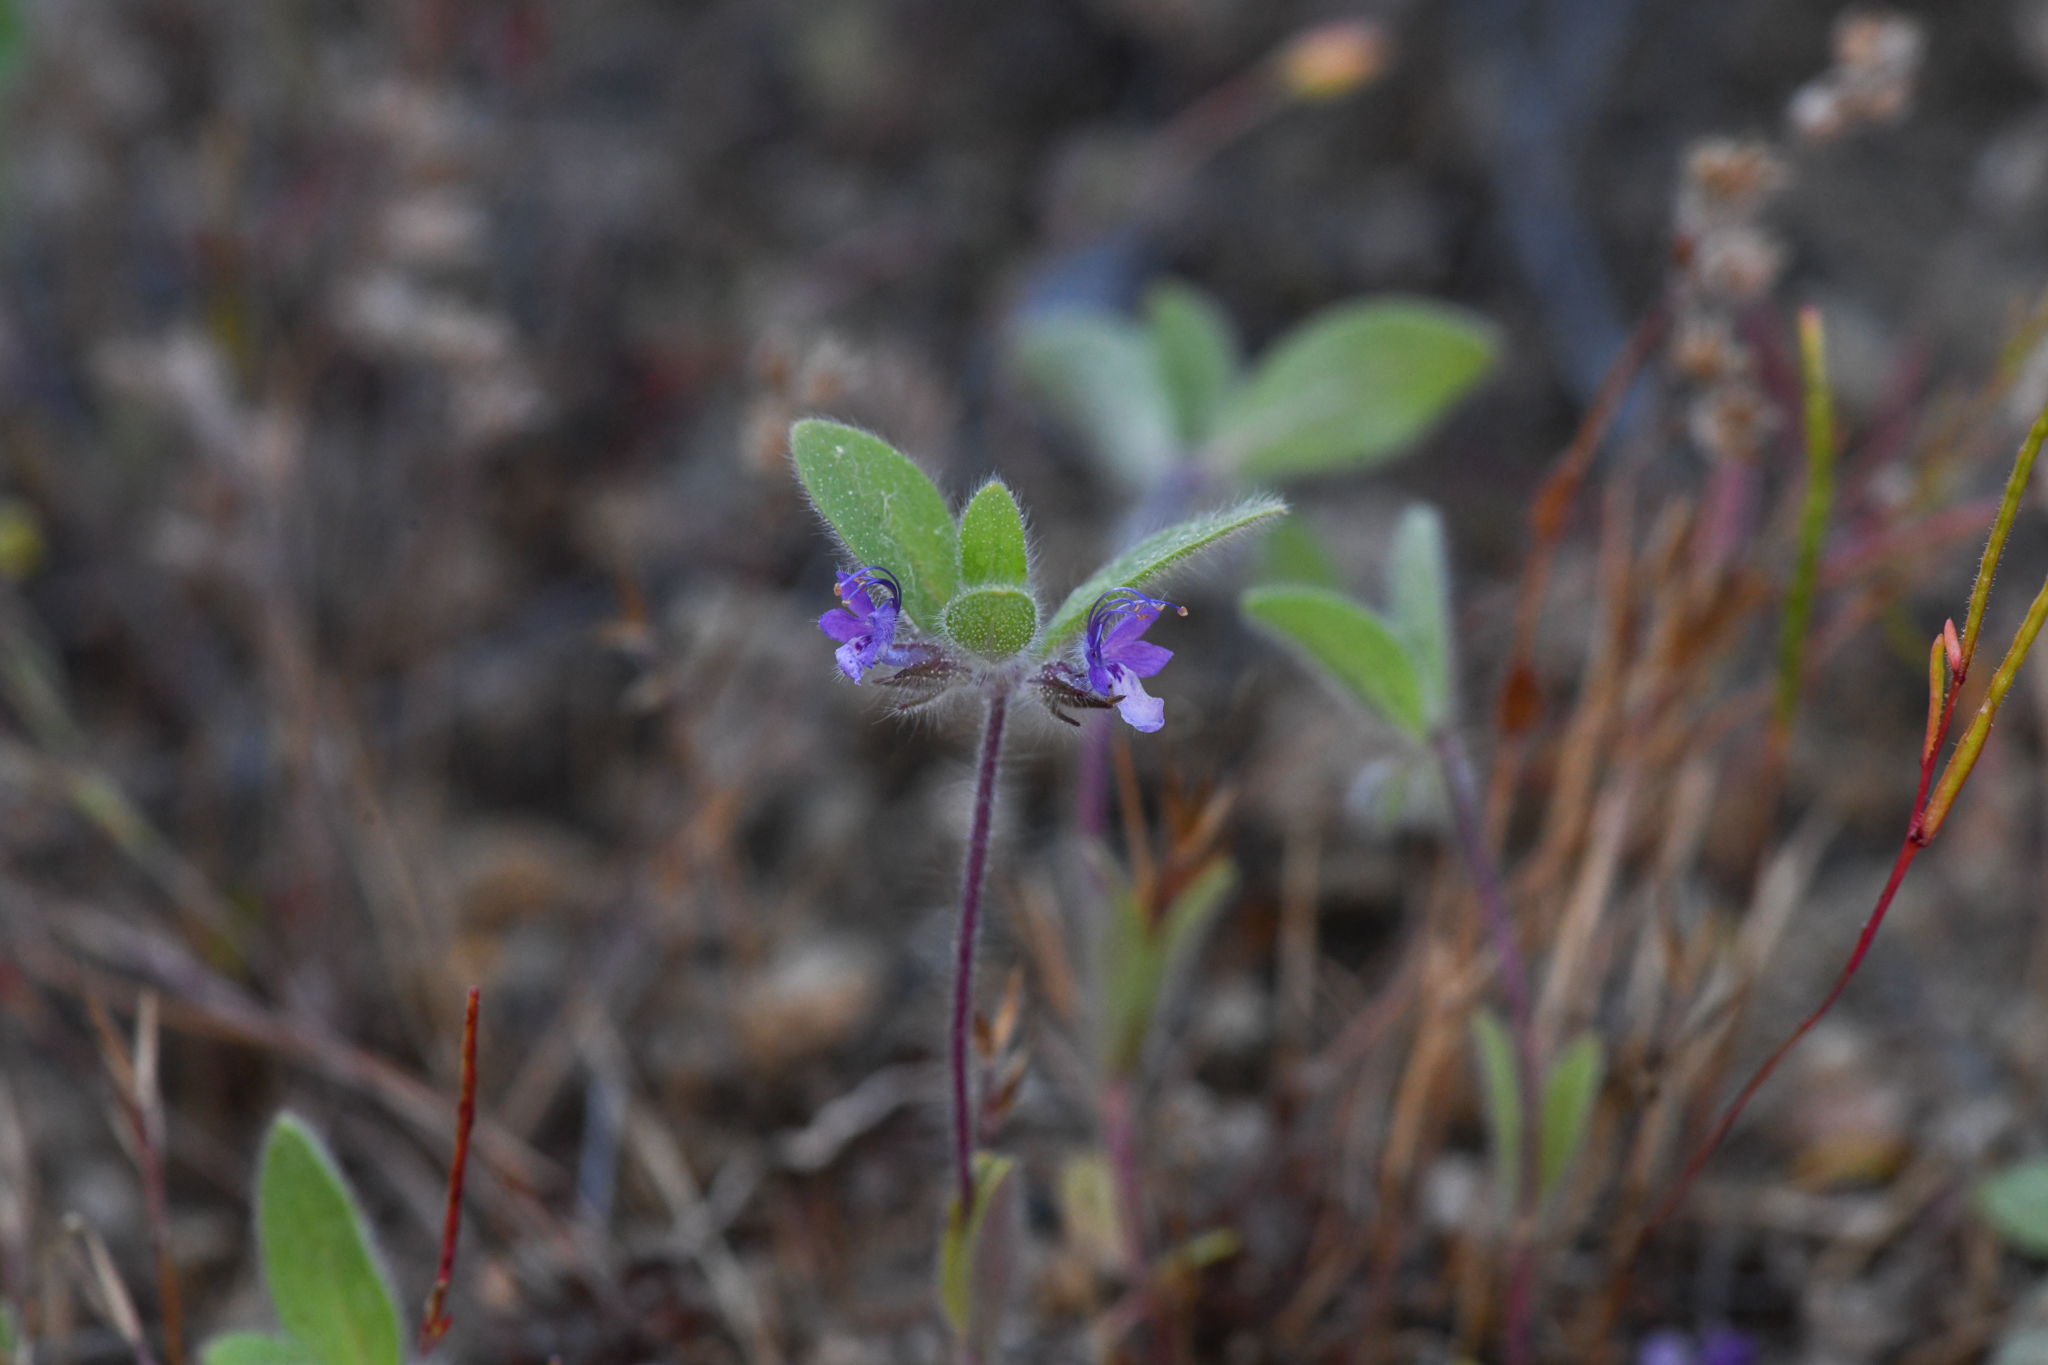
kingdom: Plantae
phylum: Tracheophyta
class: Magnoliopsida
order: Lamiales
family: Lamiaceae
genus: Trichostema
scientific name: Trichostema oblongum
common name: Mountain bluecurls
